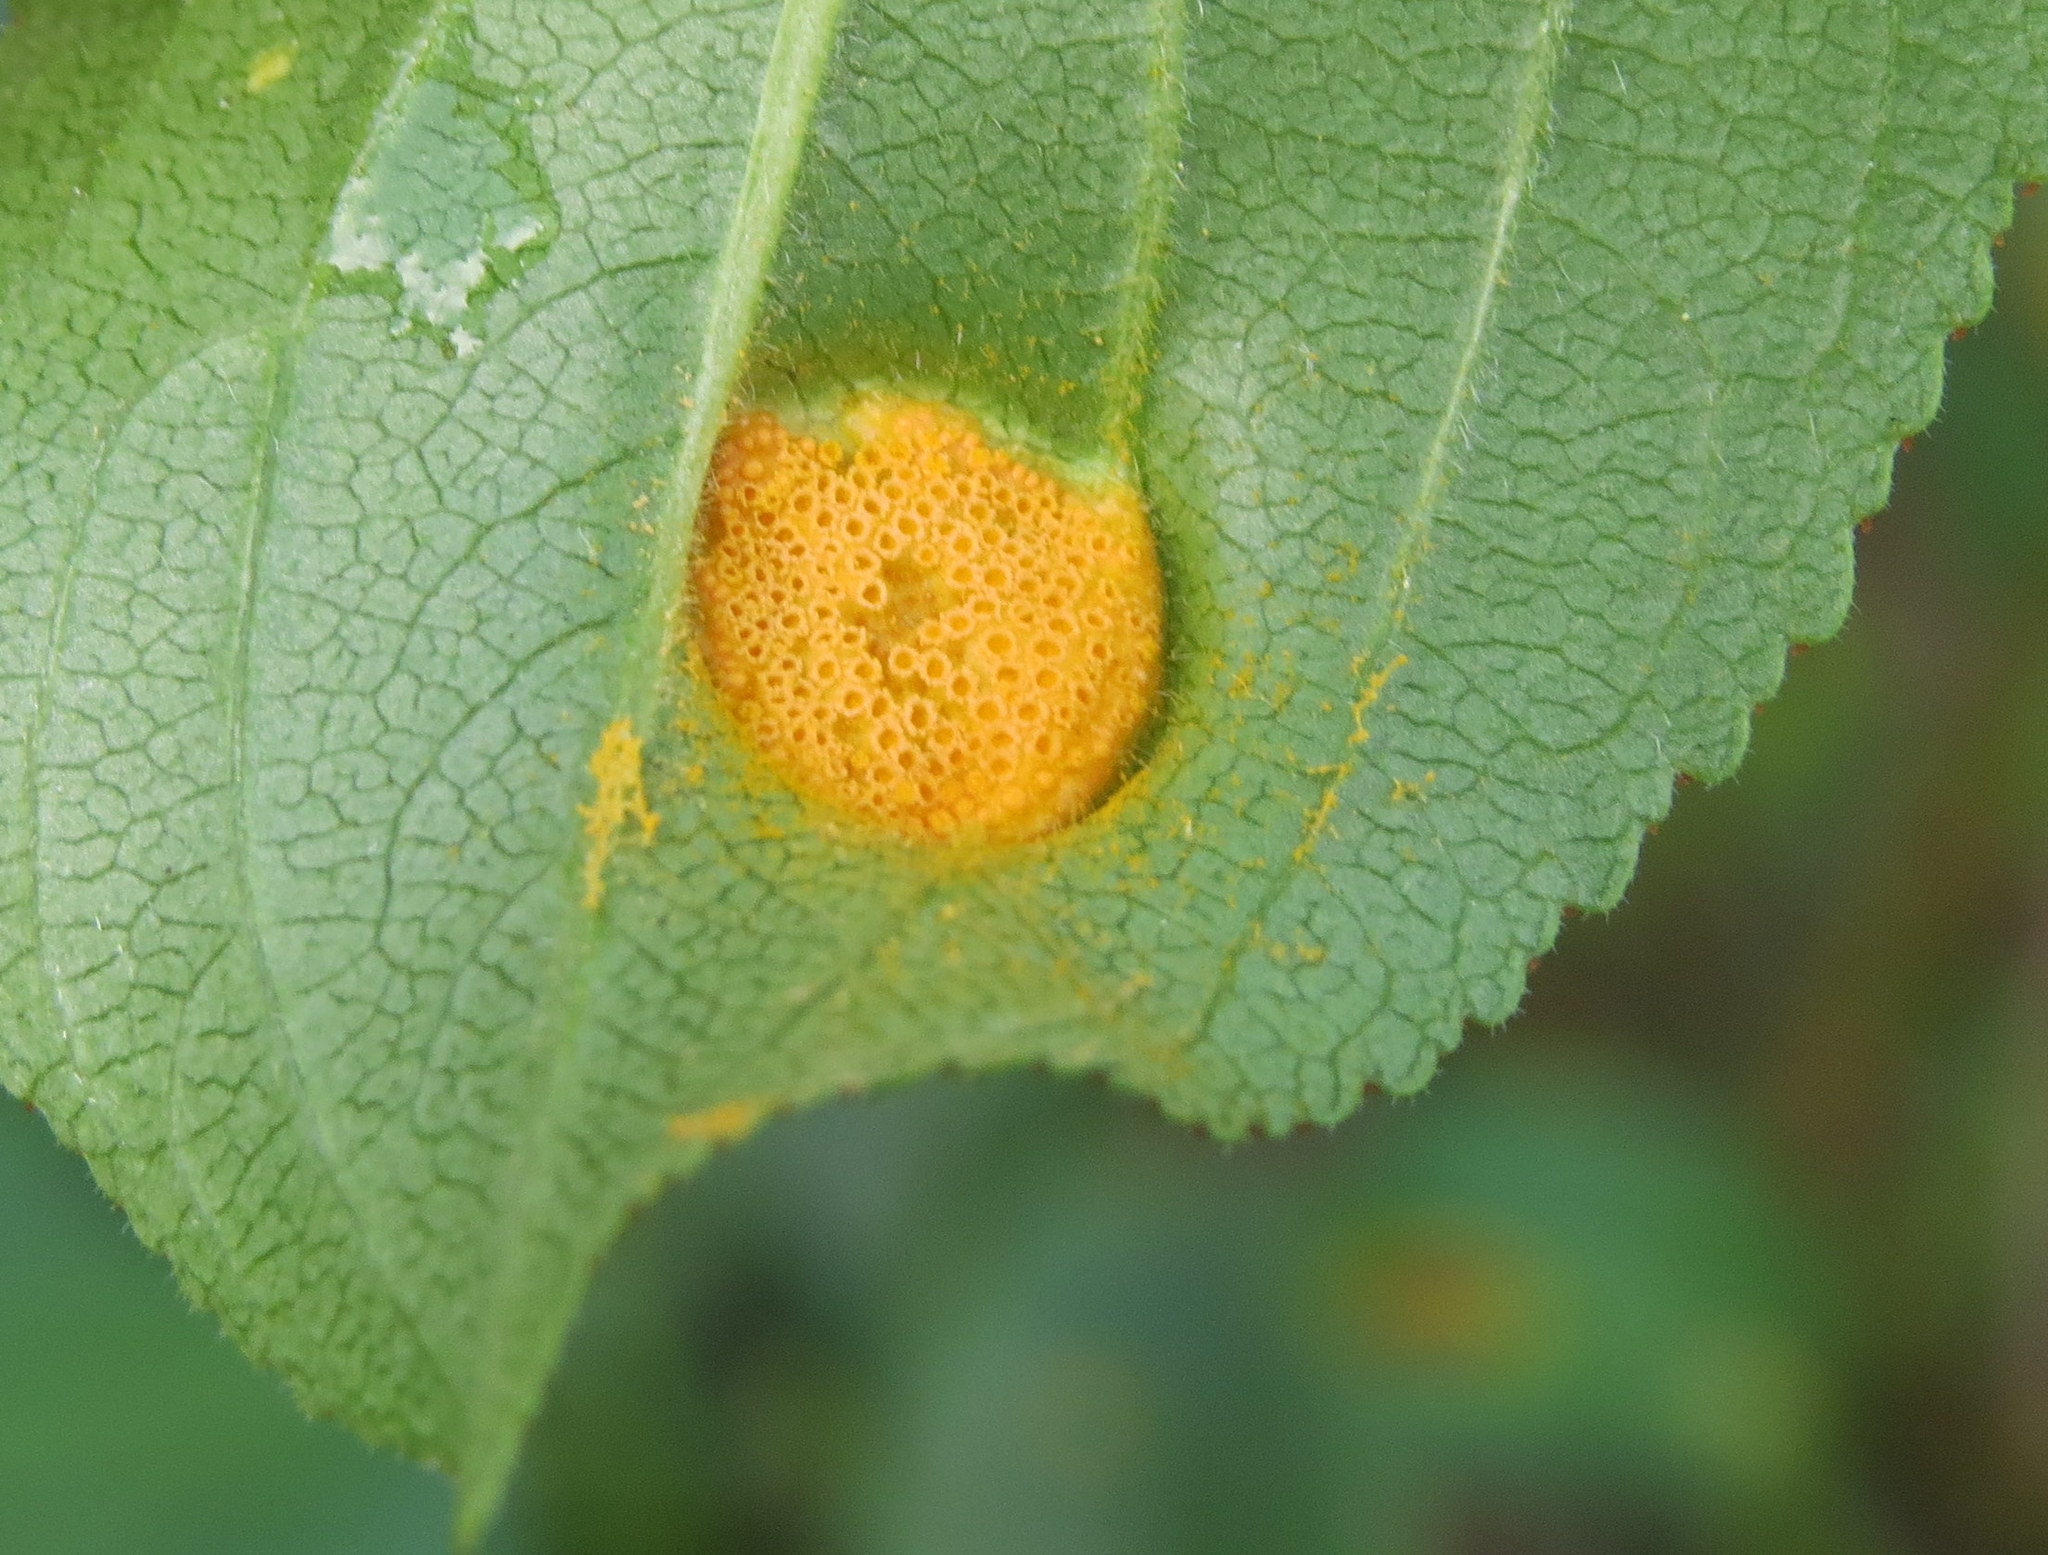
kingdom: Fungi
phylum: Basidiomycota
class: Pucciniomycetes
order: Pucciniales
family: Pucciniaceae
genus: Puccinia
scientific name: Puccinia coronata
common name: Crown rust
